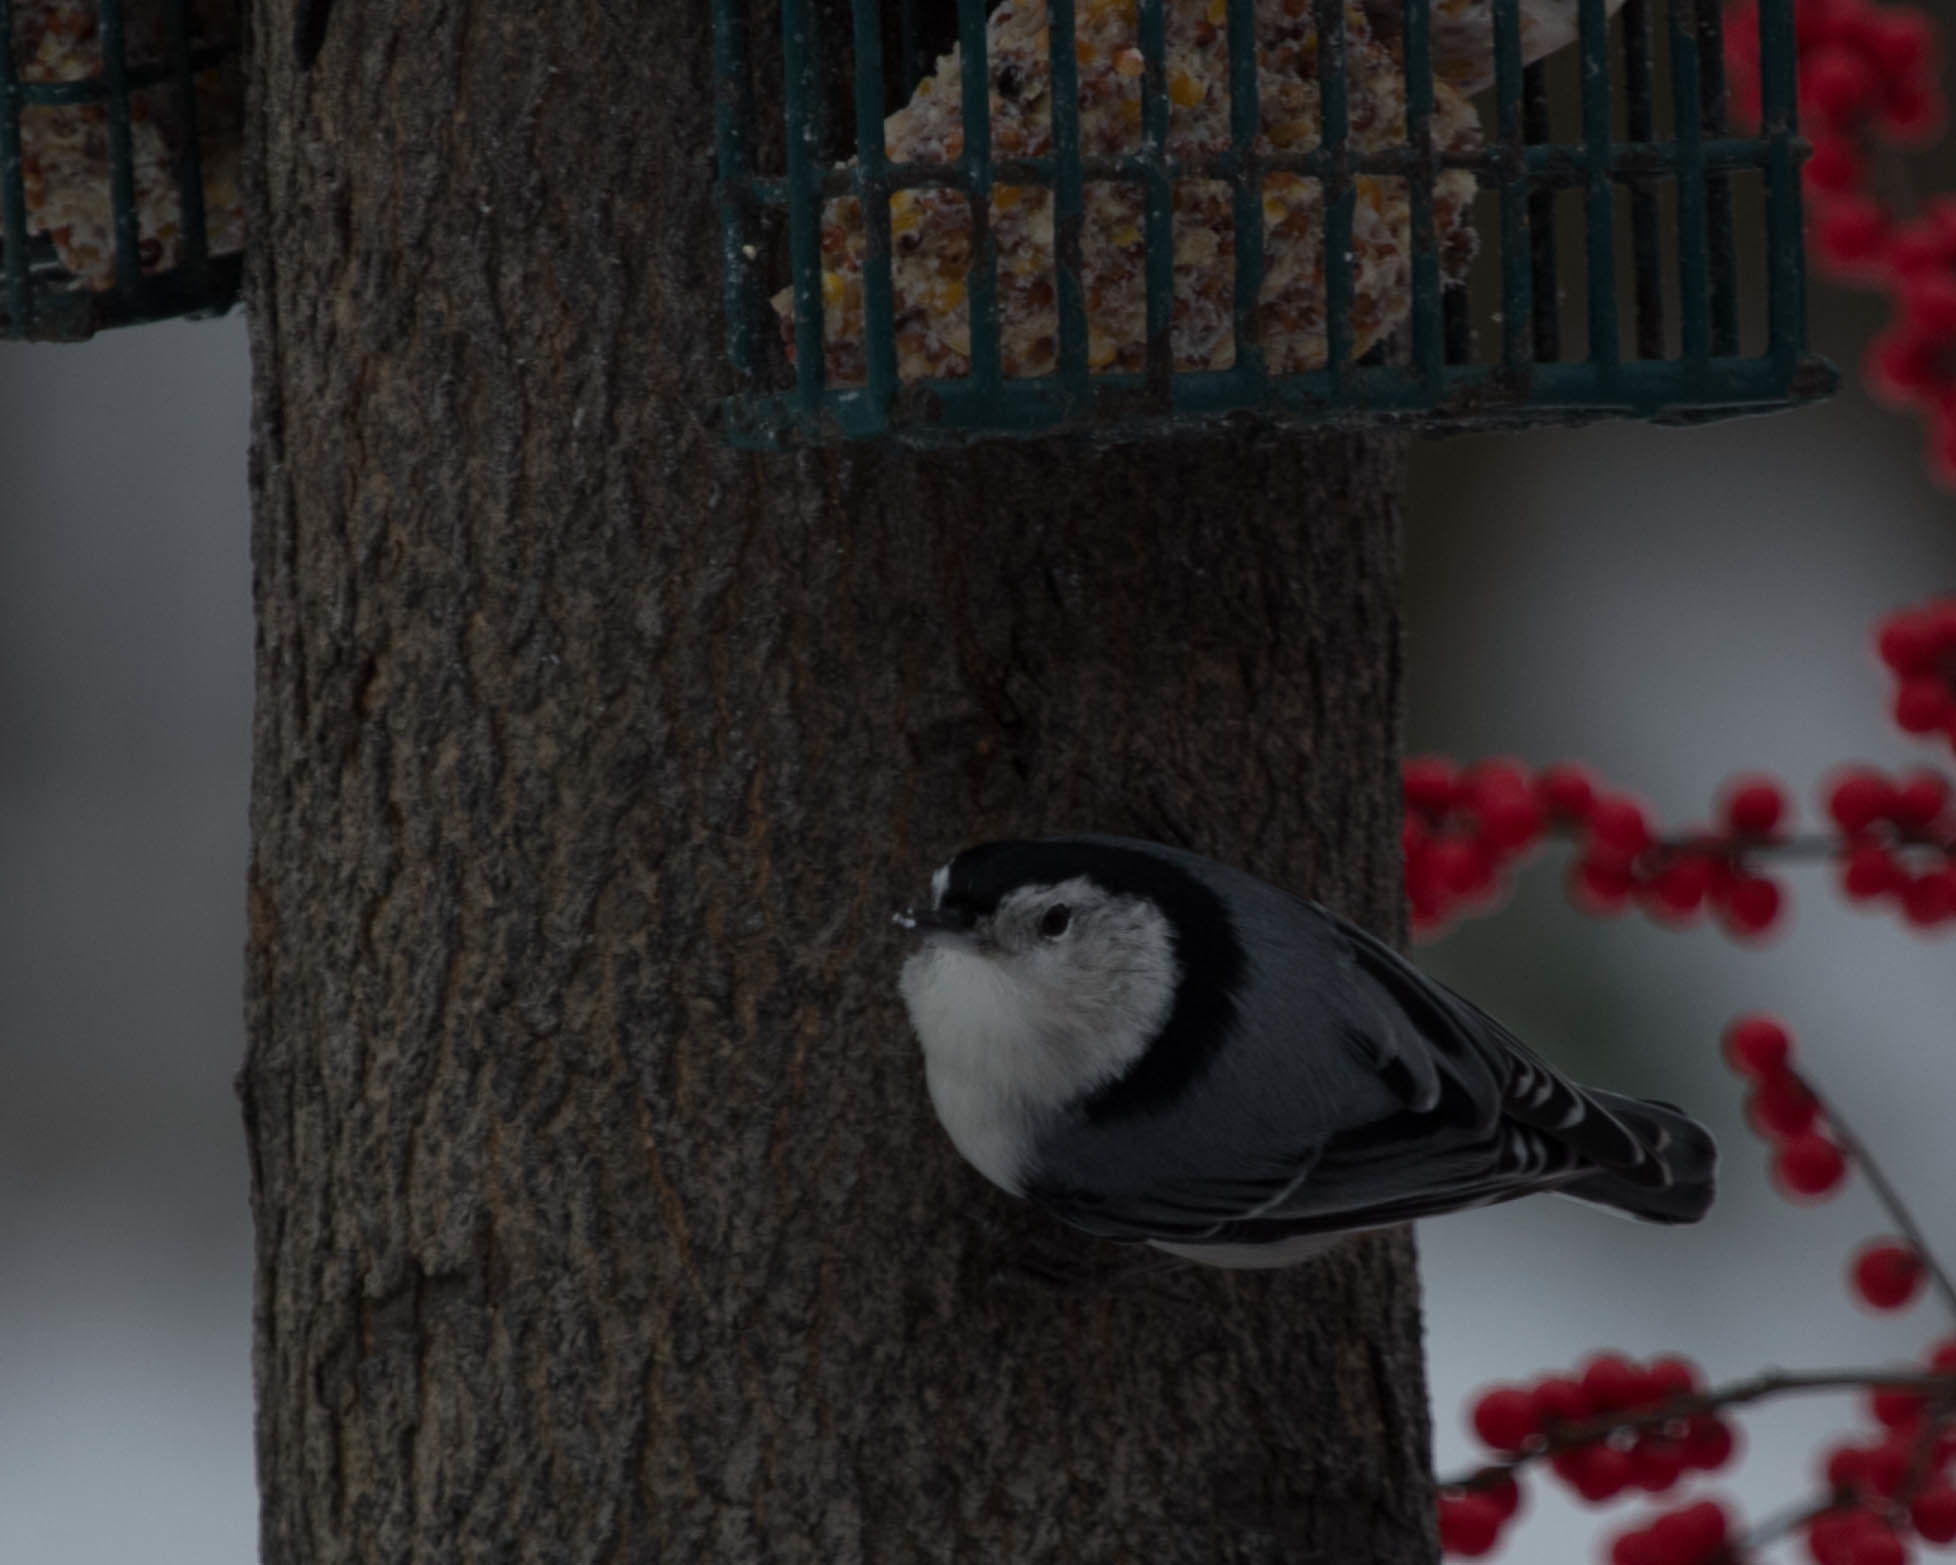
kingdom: Animalia
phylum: Chordata
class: Aves
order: Passeriformes
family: Sittidae
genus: Sitta
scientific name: Sitta carolinensis
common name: White-breasted nuthatch
